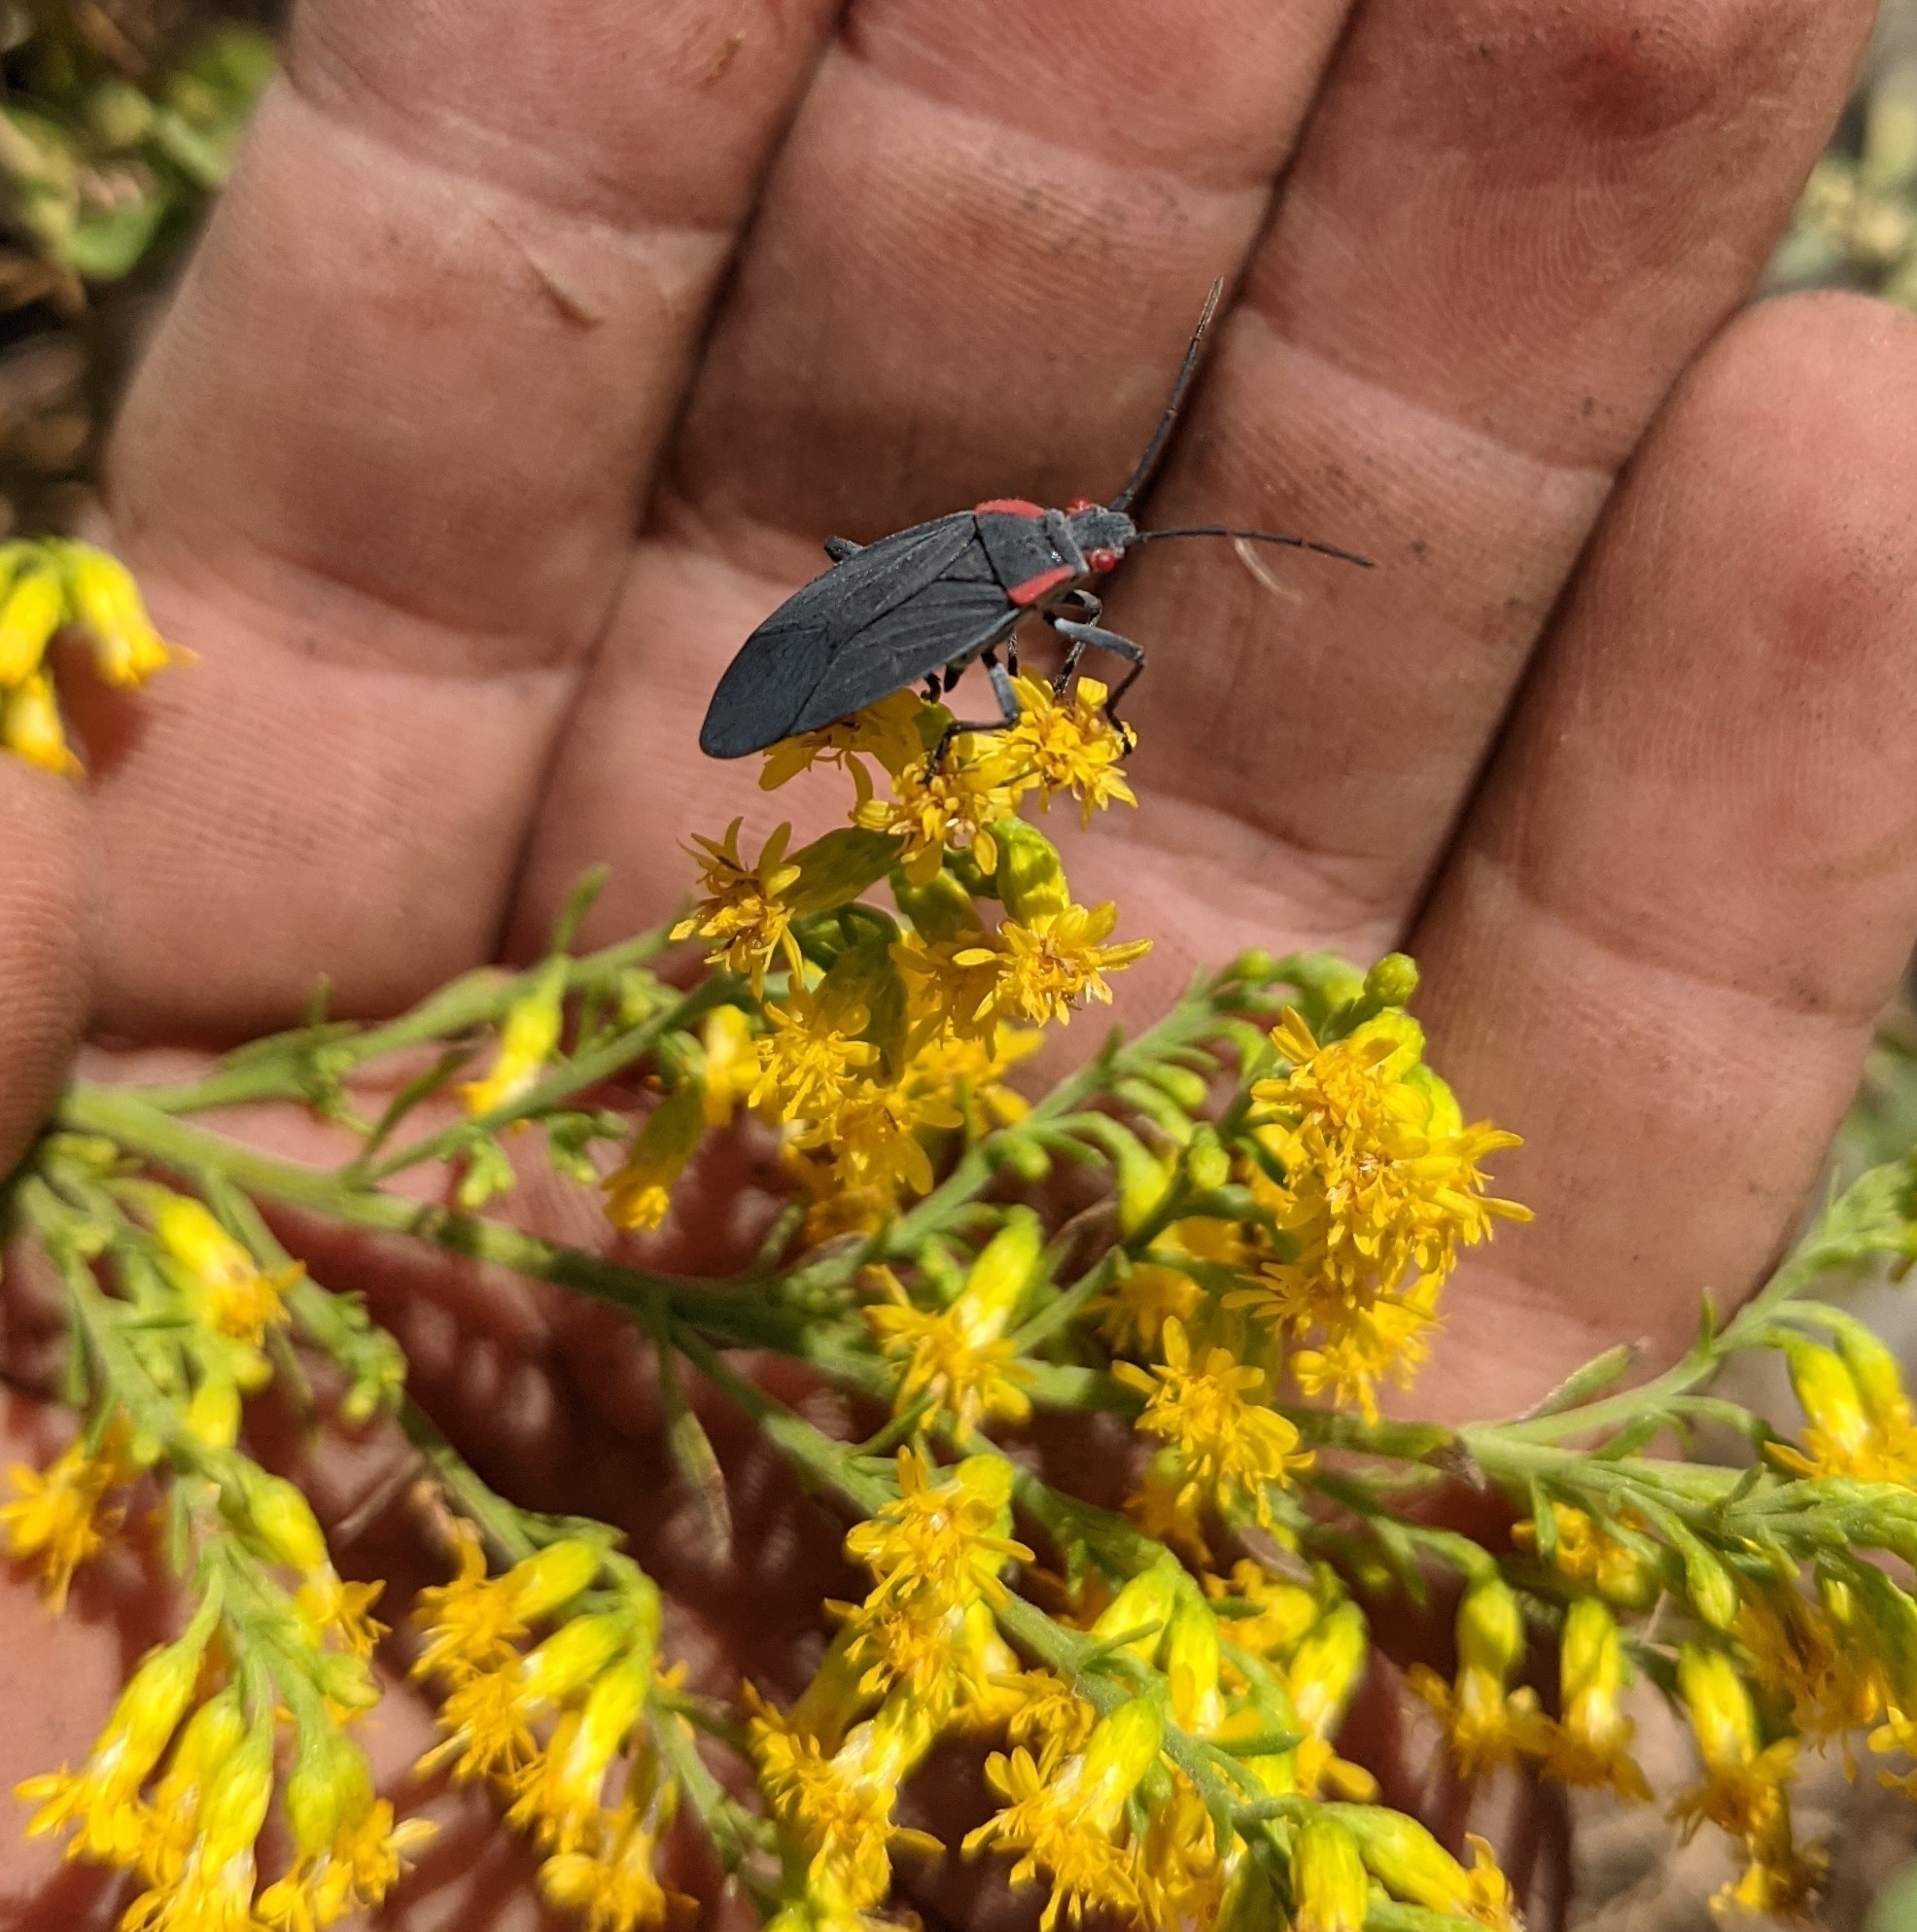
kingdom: Animalia
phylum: Arthropoda
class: Insecta
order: Hemiptera
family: Rhopalidae
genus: Jadera
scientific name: Jadera haematoloma
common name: Red-shouldered bug
